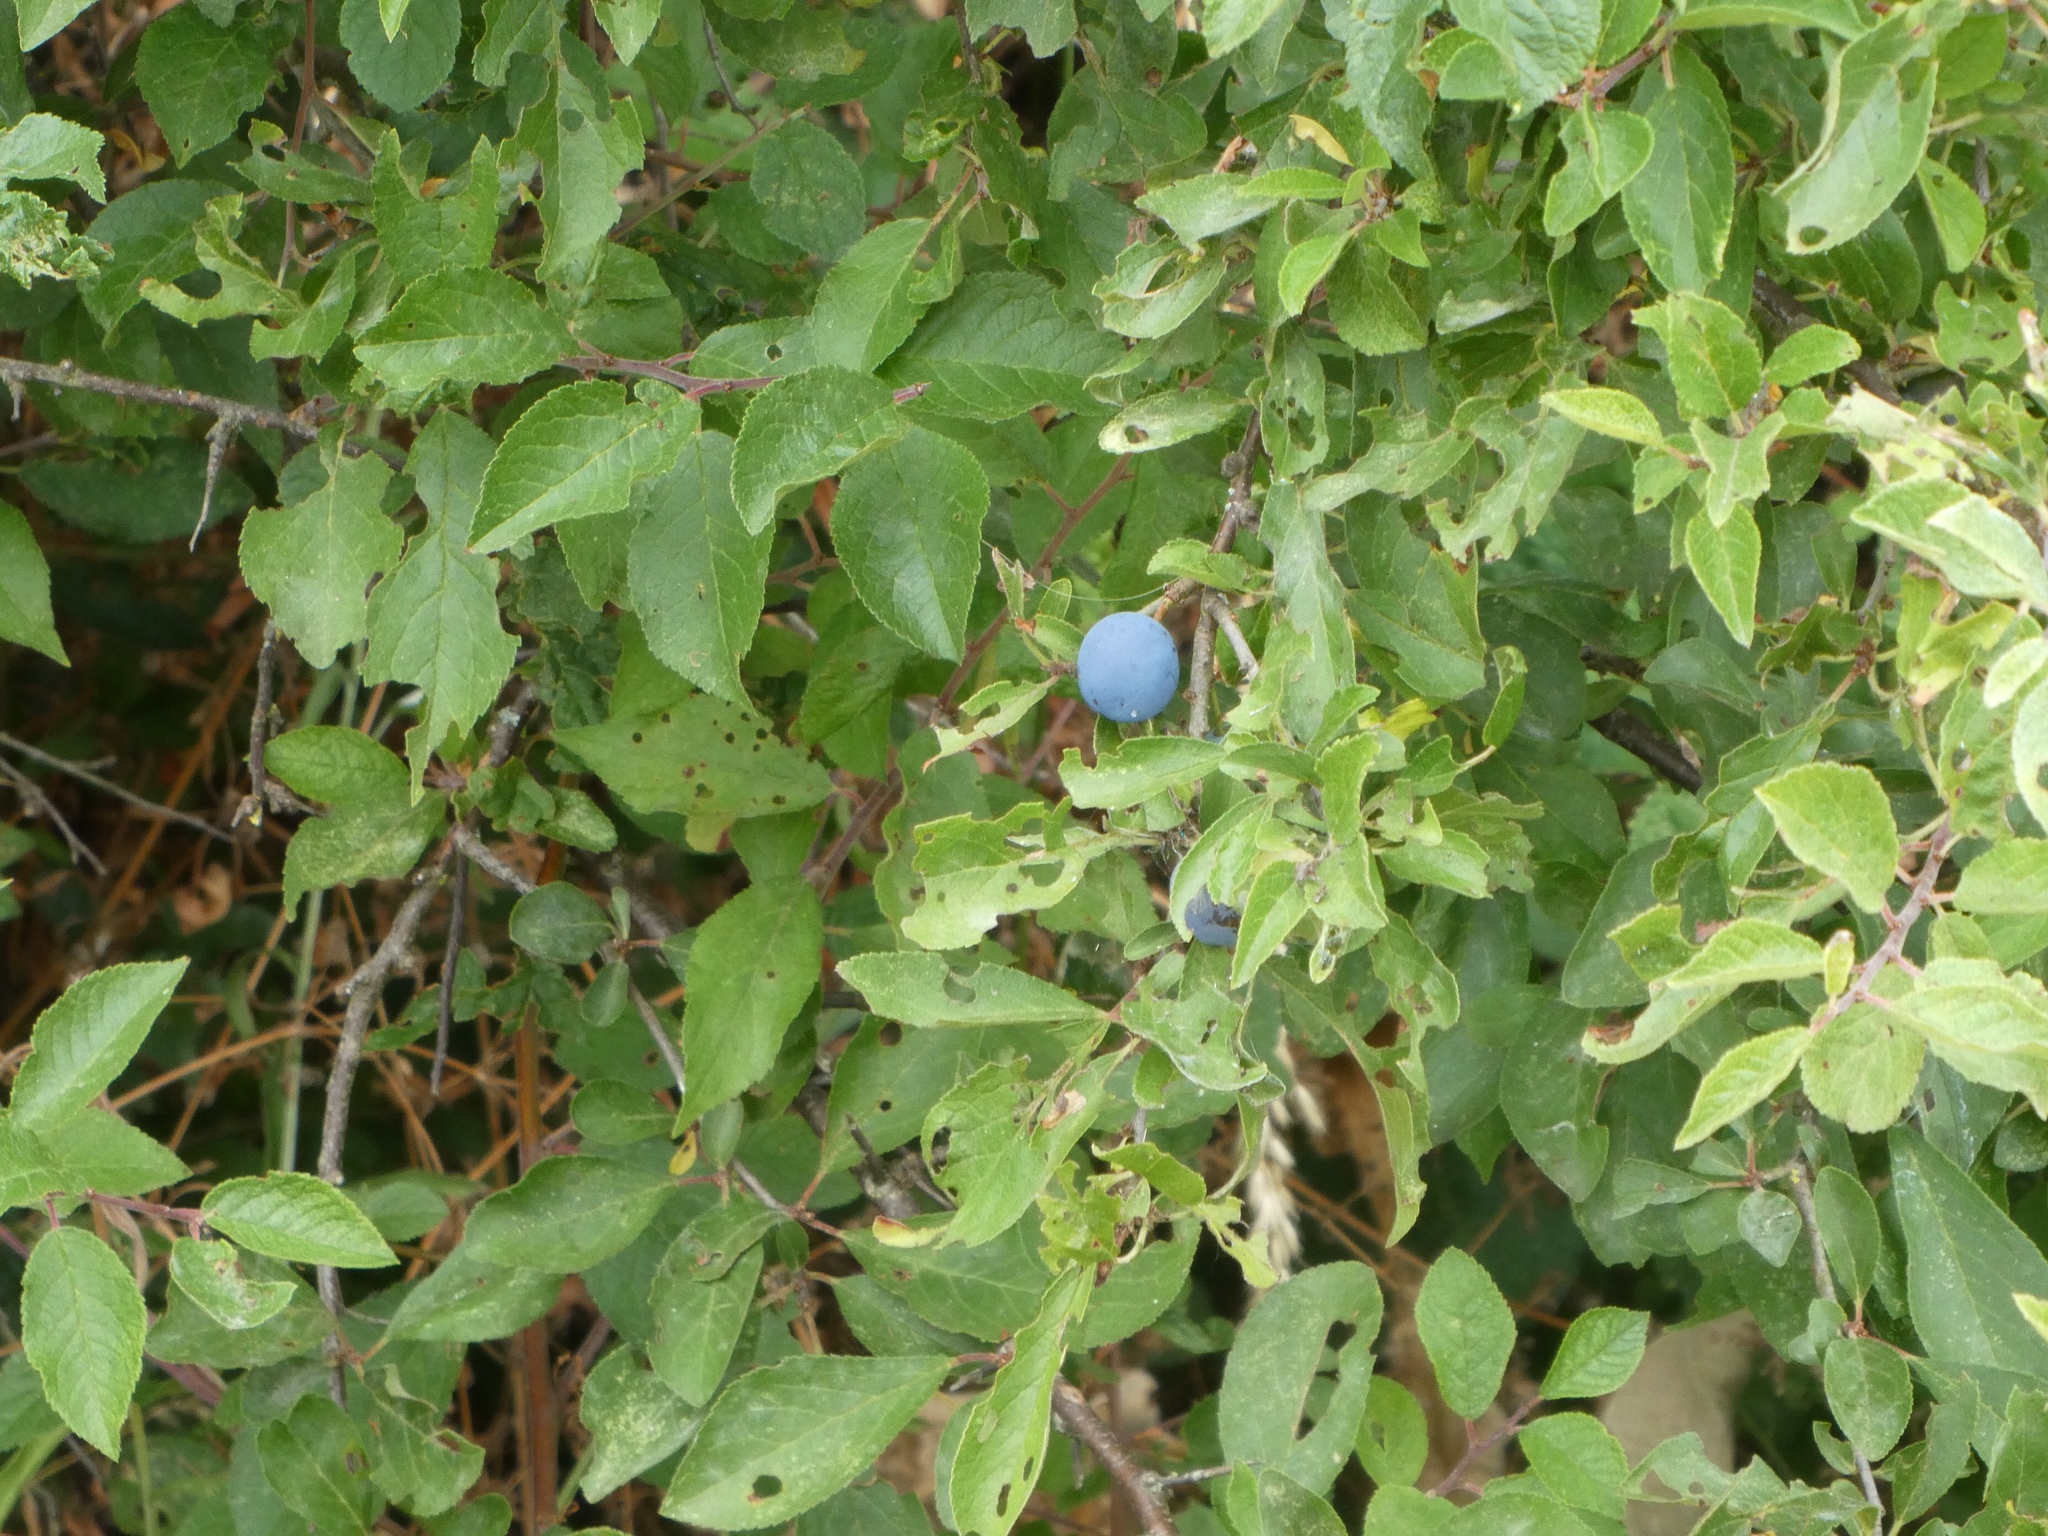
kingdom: Plantae
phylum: Tracheophyta
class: Magnoliopsida
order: Rosales
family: Rosaceae
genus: Prunus
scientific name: Prunus spinosa
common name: Blackthorn
